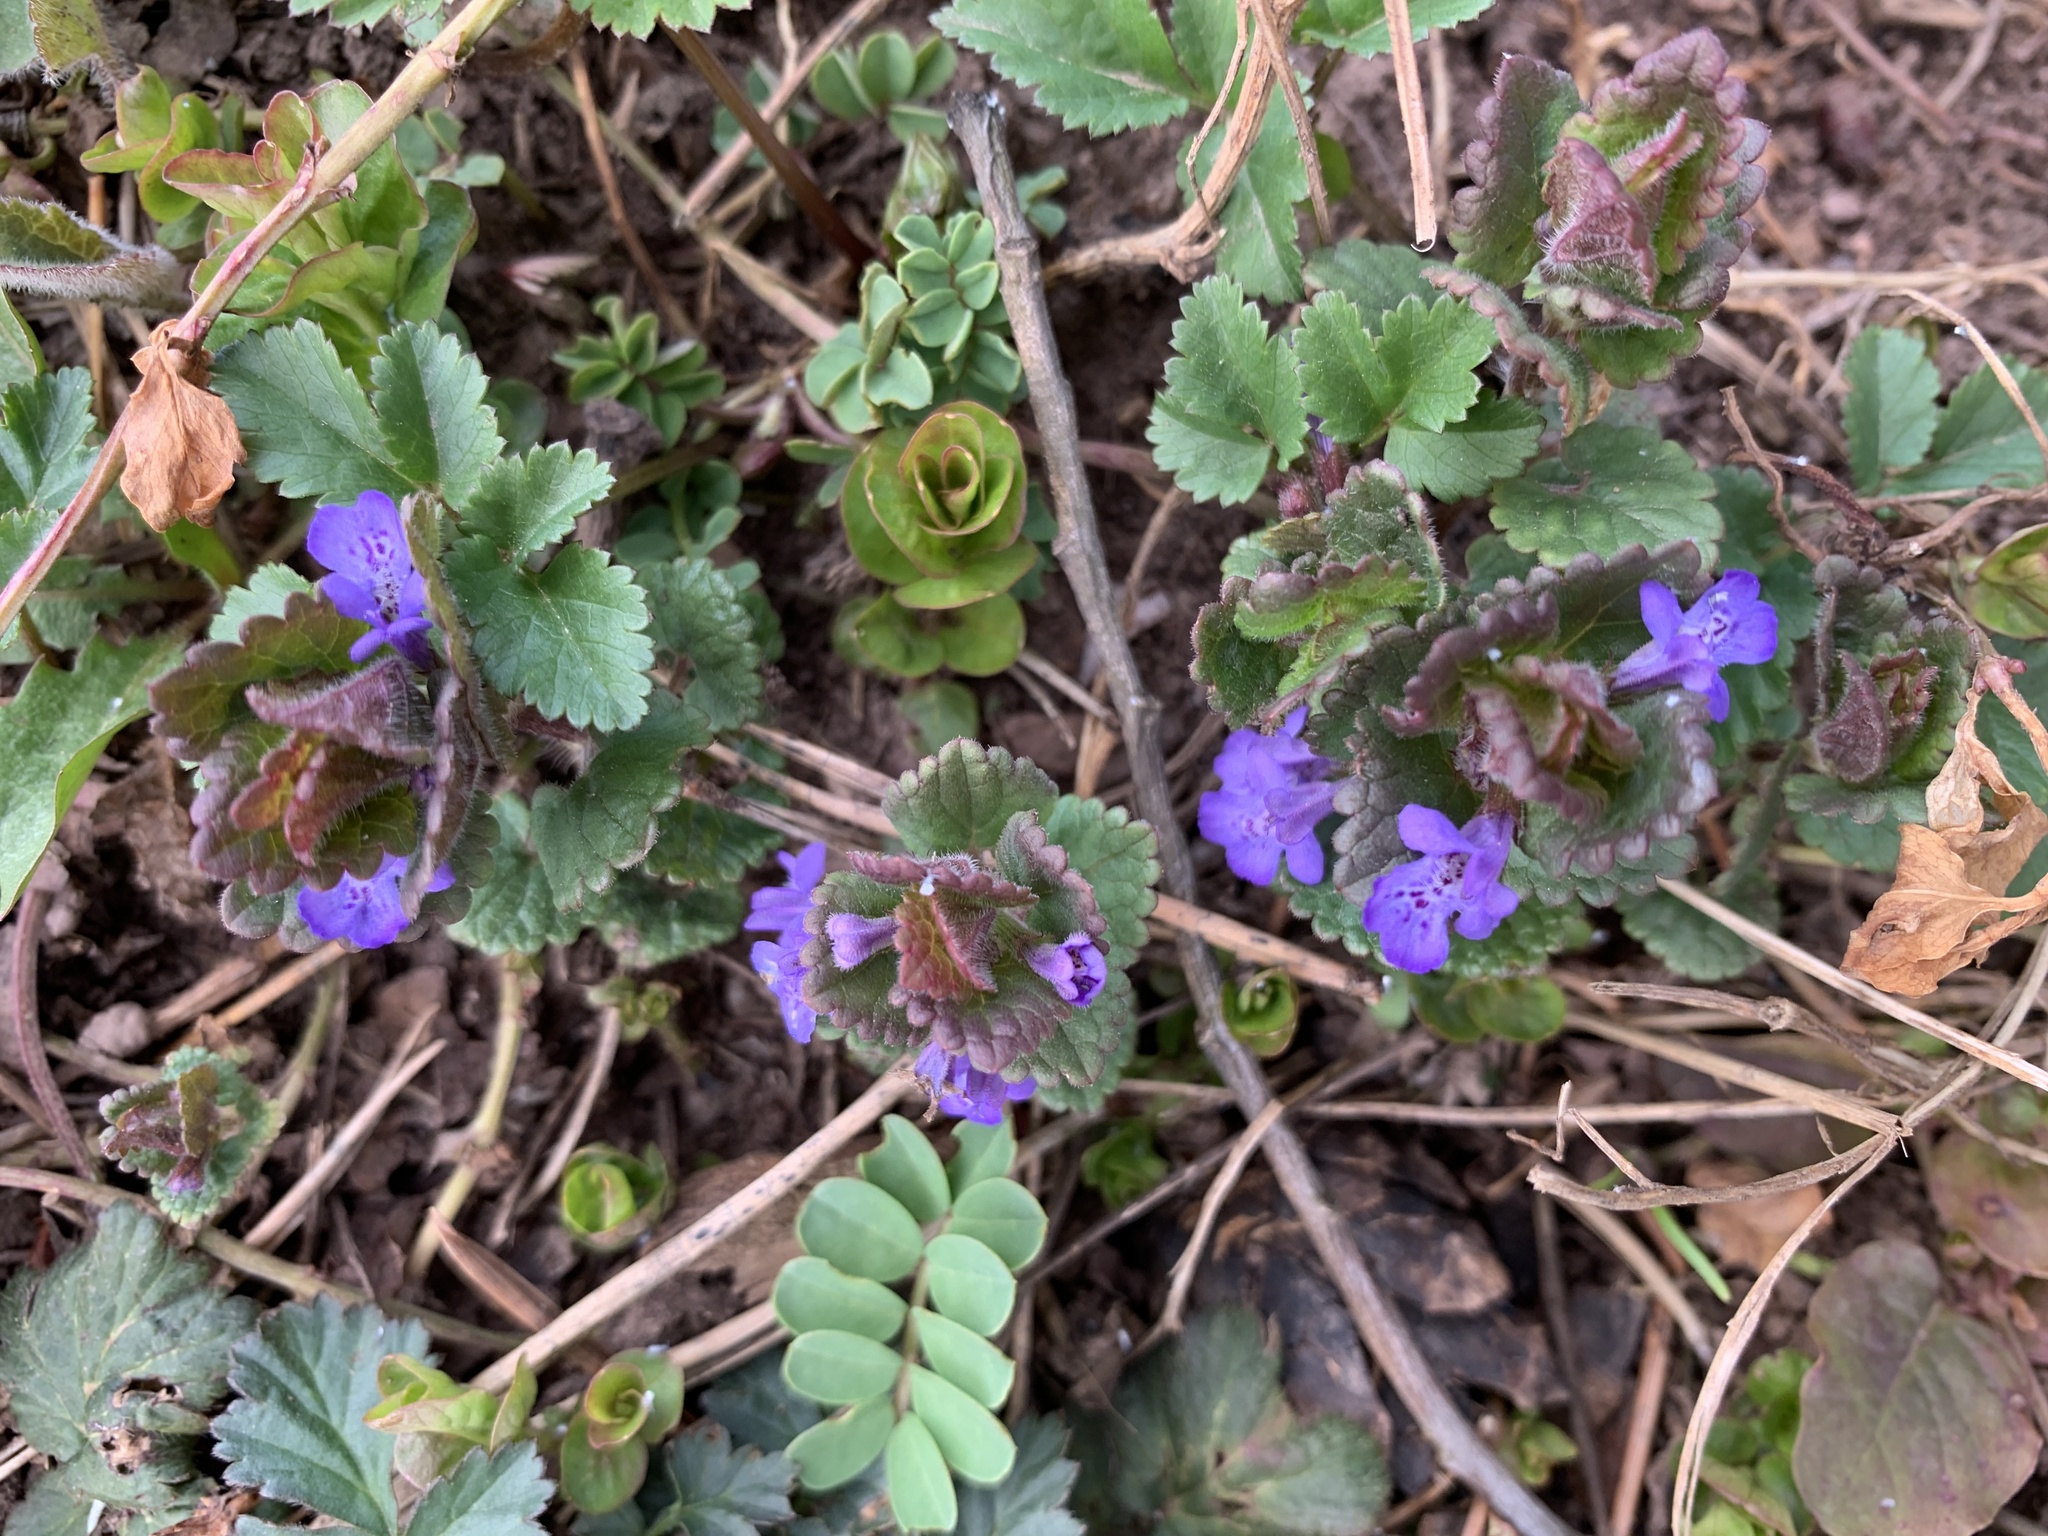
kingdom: Plantae
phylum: Tracheophyta
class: Magnoliopsida
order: Lamiales
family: Lamiaceae
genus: Glechoma
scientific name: Glechoma hederacea
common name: Ground ivy
